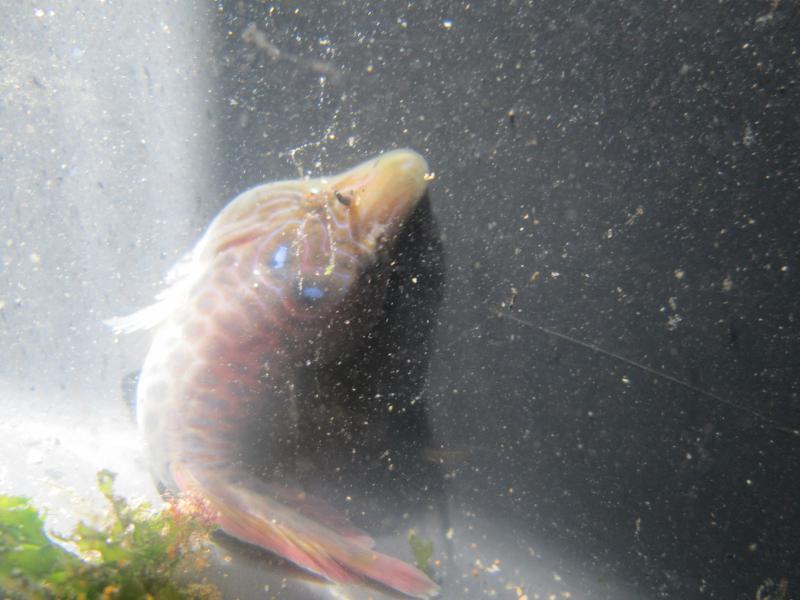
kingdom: Animalia
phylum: Chordata
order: Gobiesociformes
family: Gobiesocidae
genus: Lepadogaster
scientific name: Lepadogaster lepadogaster
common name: Cornish sucker
